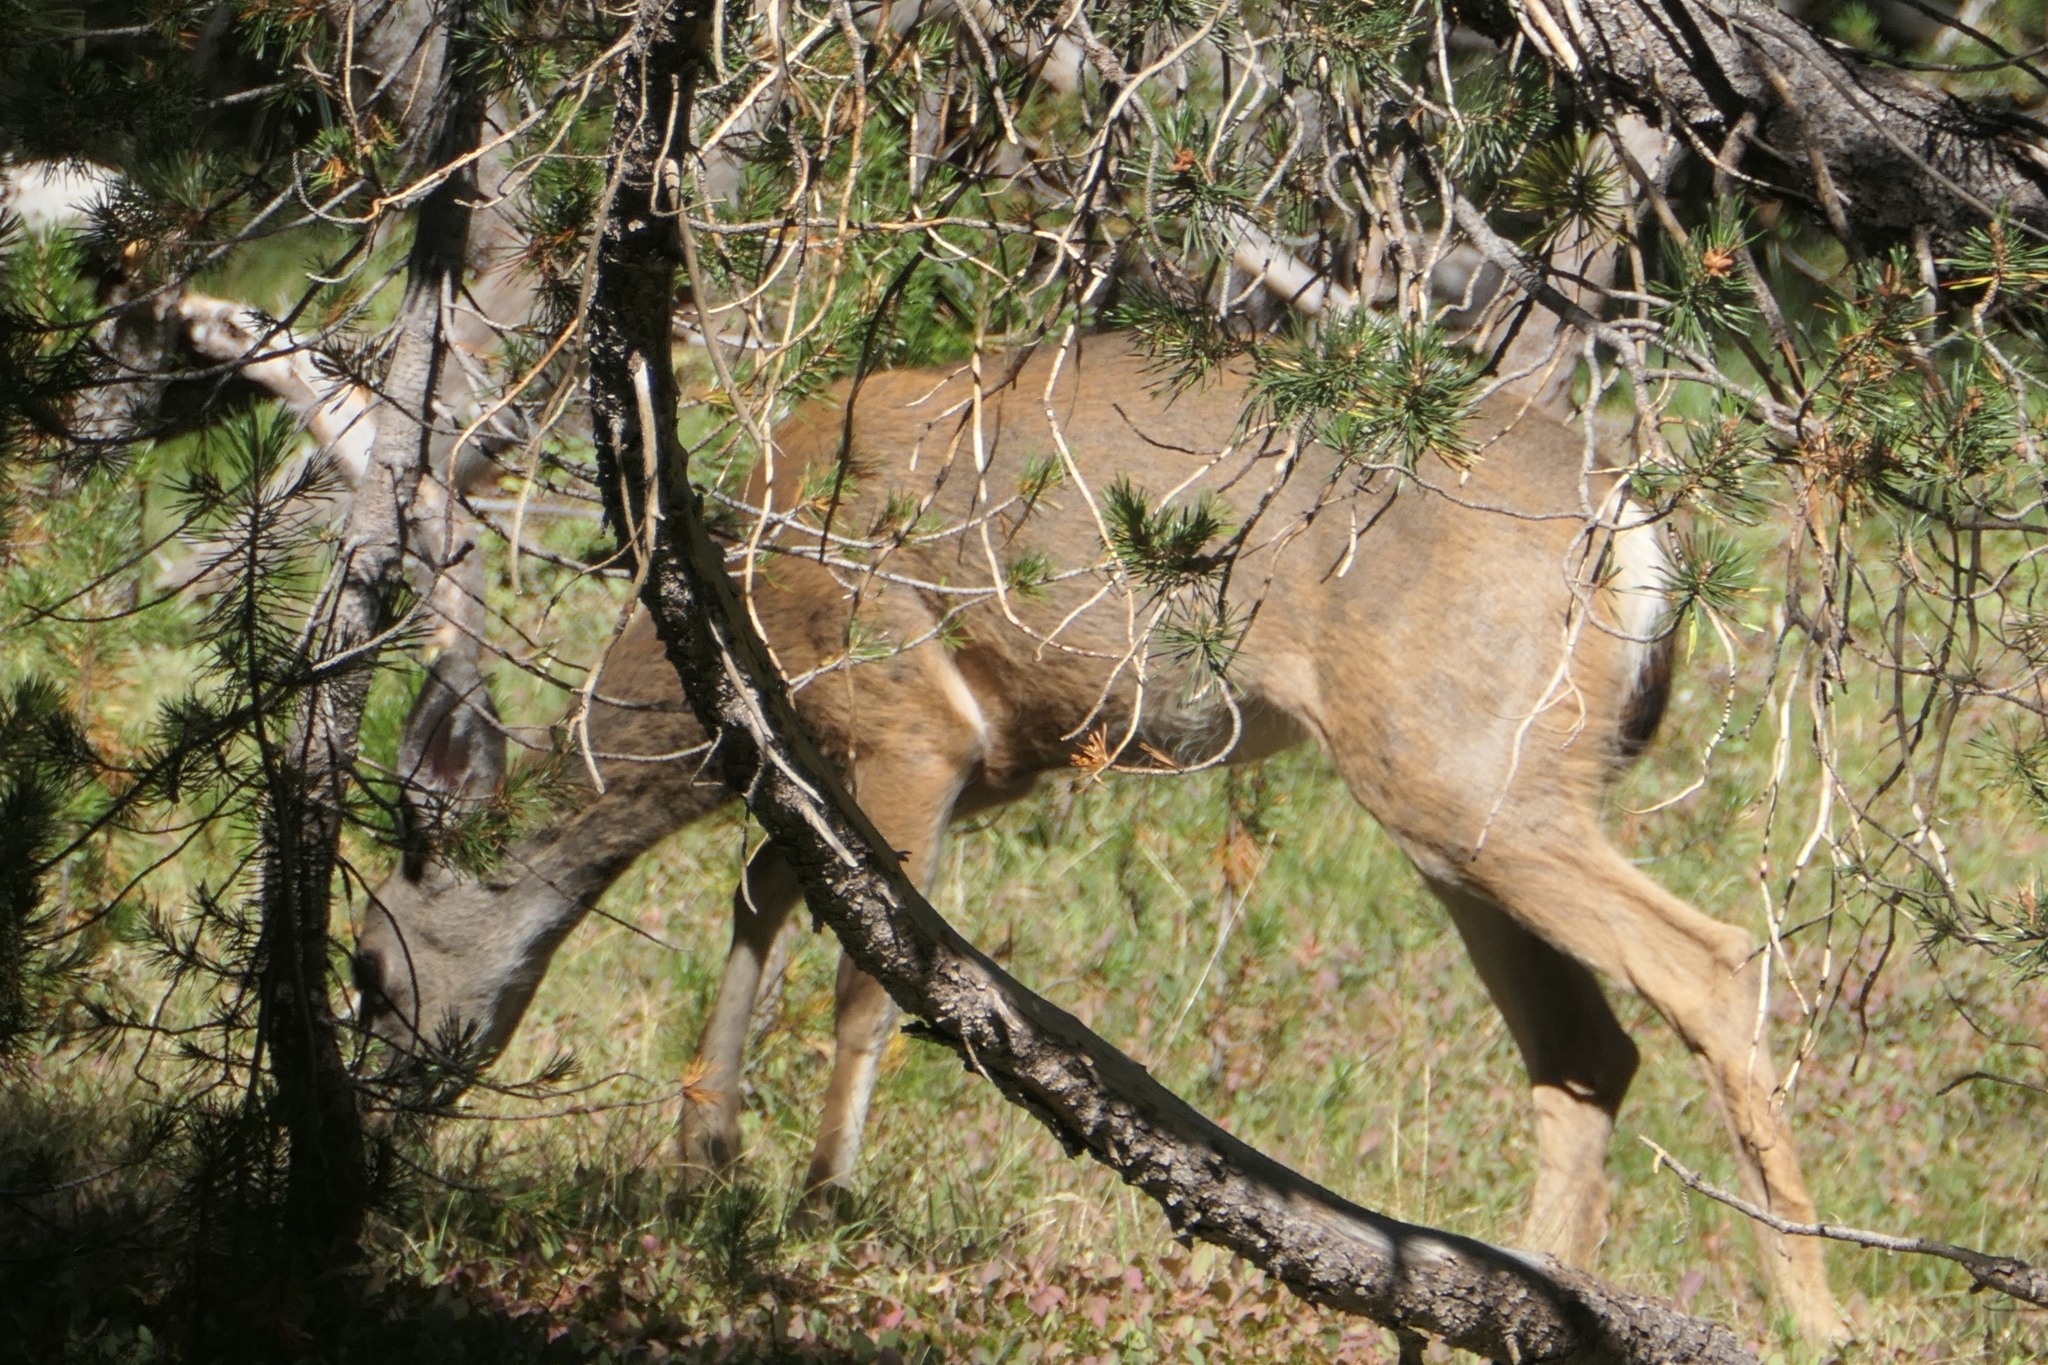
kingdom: Animalia
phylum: Chordata
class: Mammalia
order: Artiodactyla
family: Cervidae
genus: Odocoileus
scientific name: Odocoileus hemionus
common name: Mule deer
